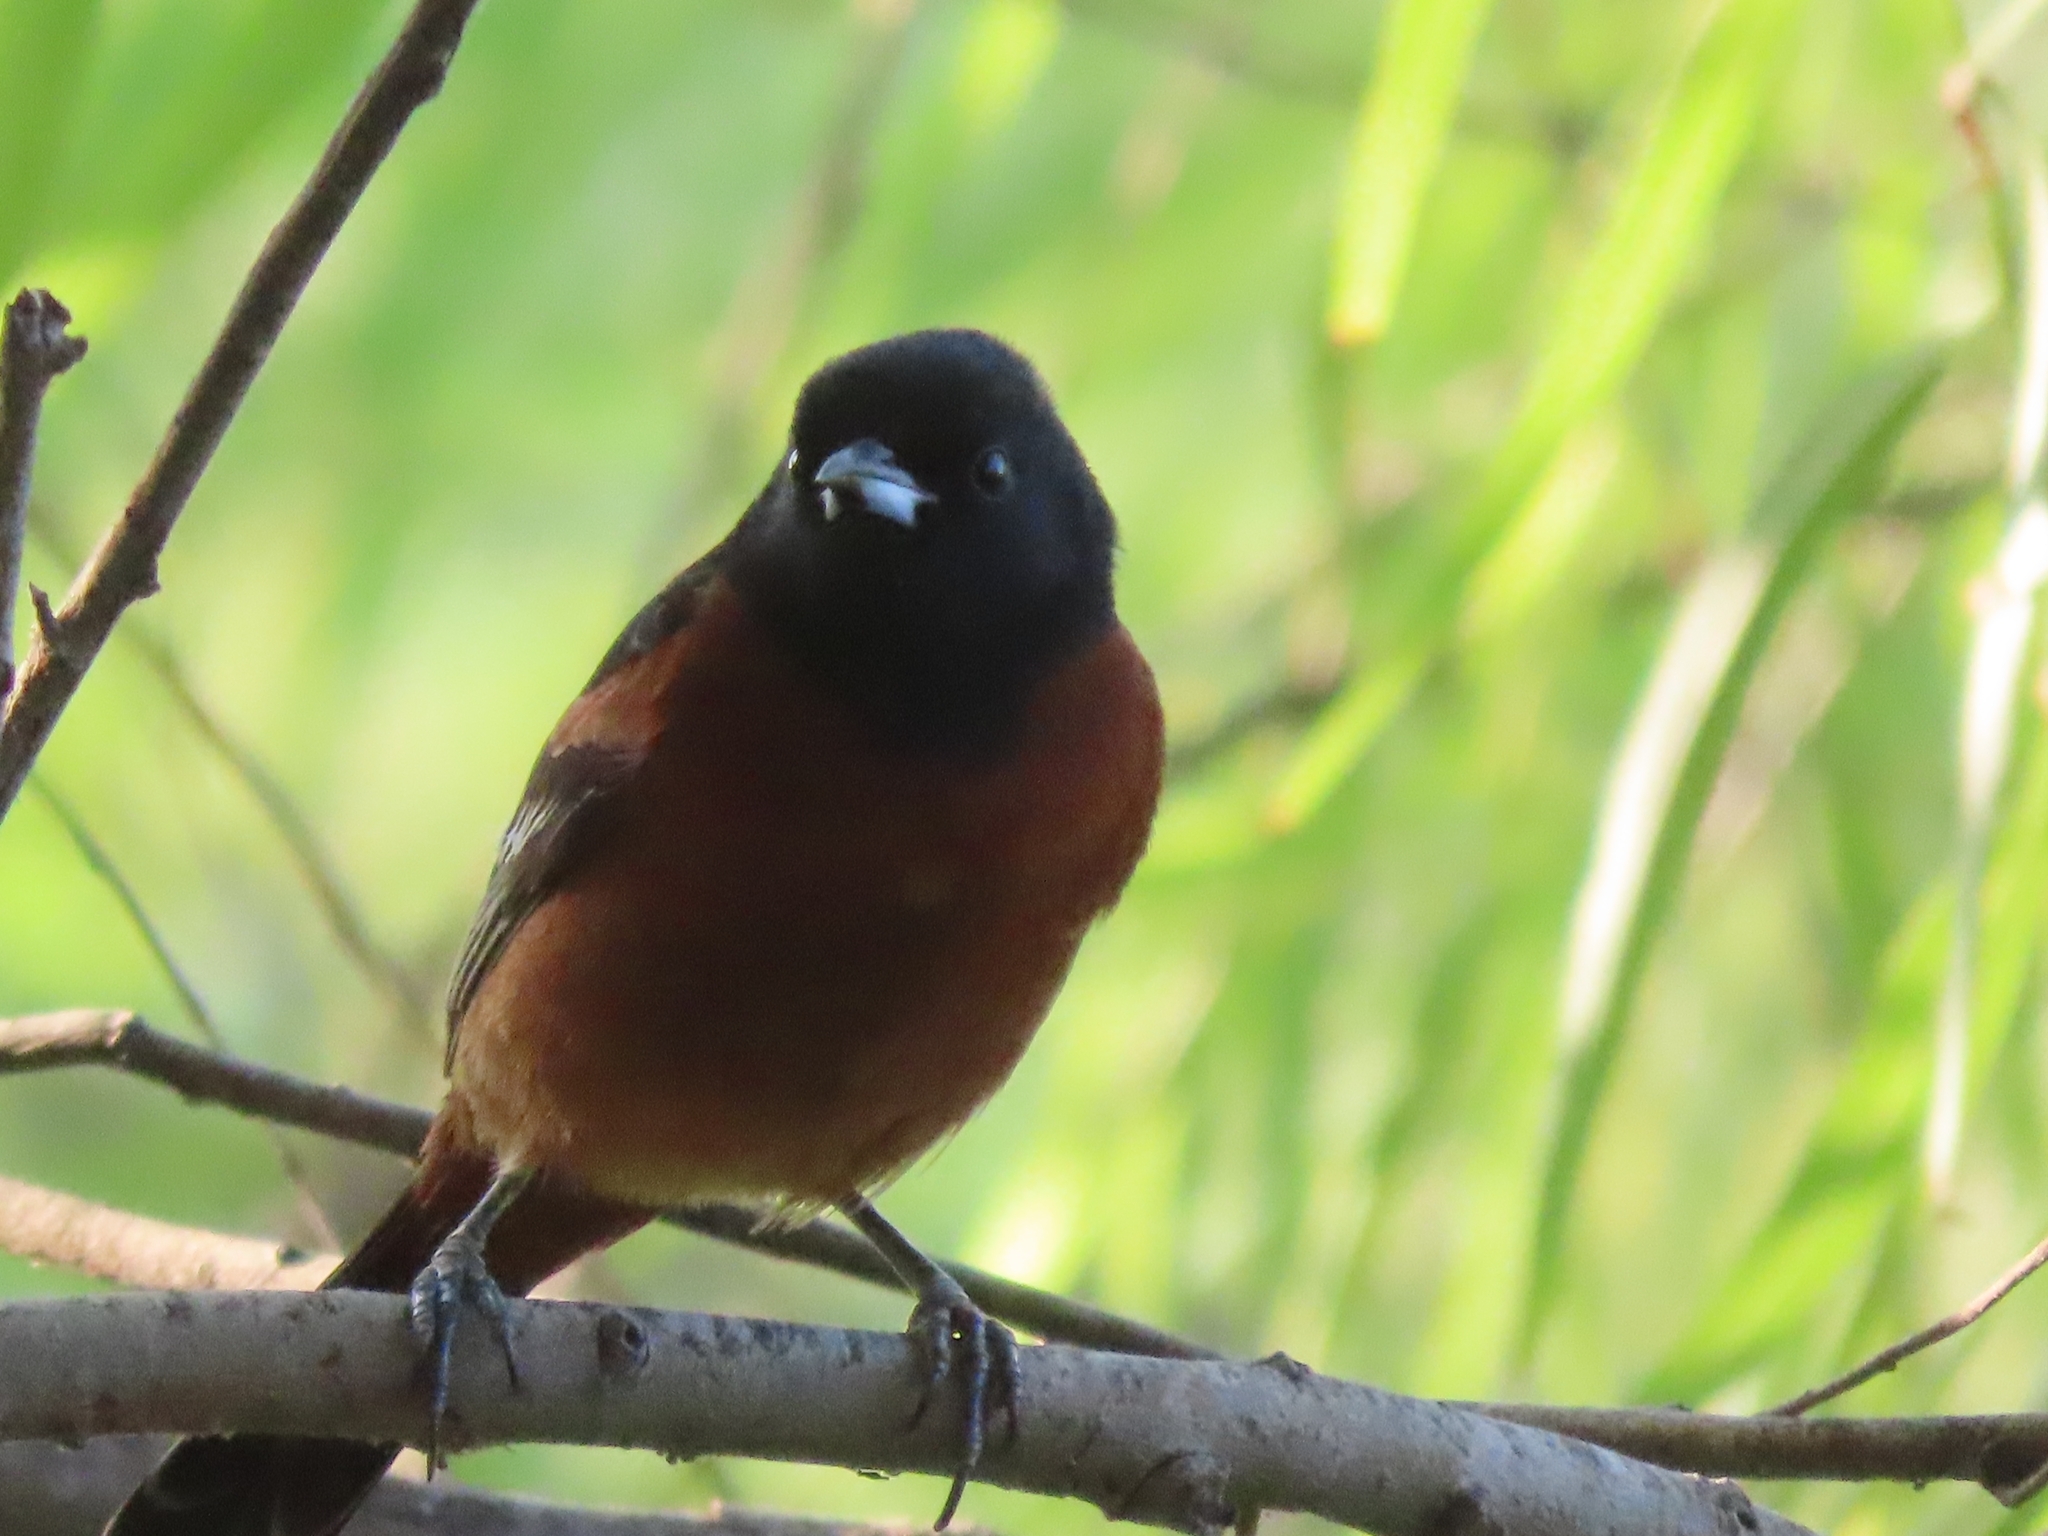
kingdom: Animalia
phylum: Chordata
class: Aves
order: Passeriformes
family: Icteridae
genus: Icterus
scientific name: Icterus spurius
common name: Orchard oriole
